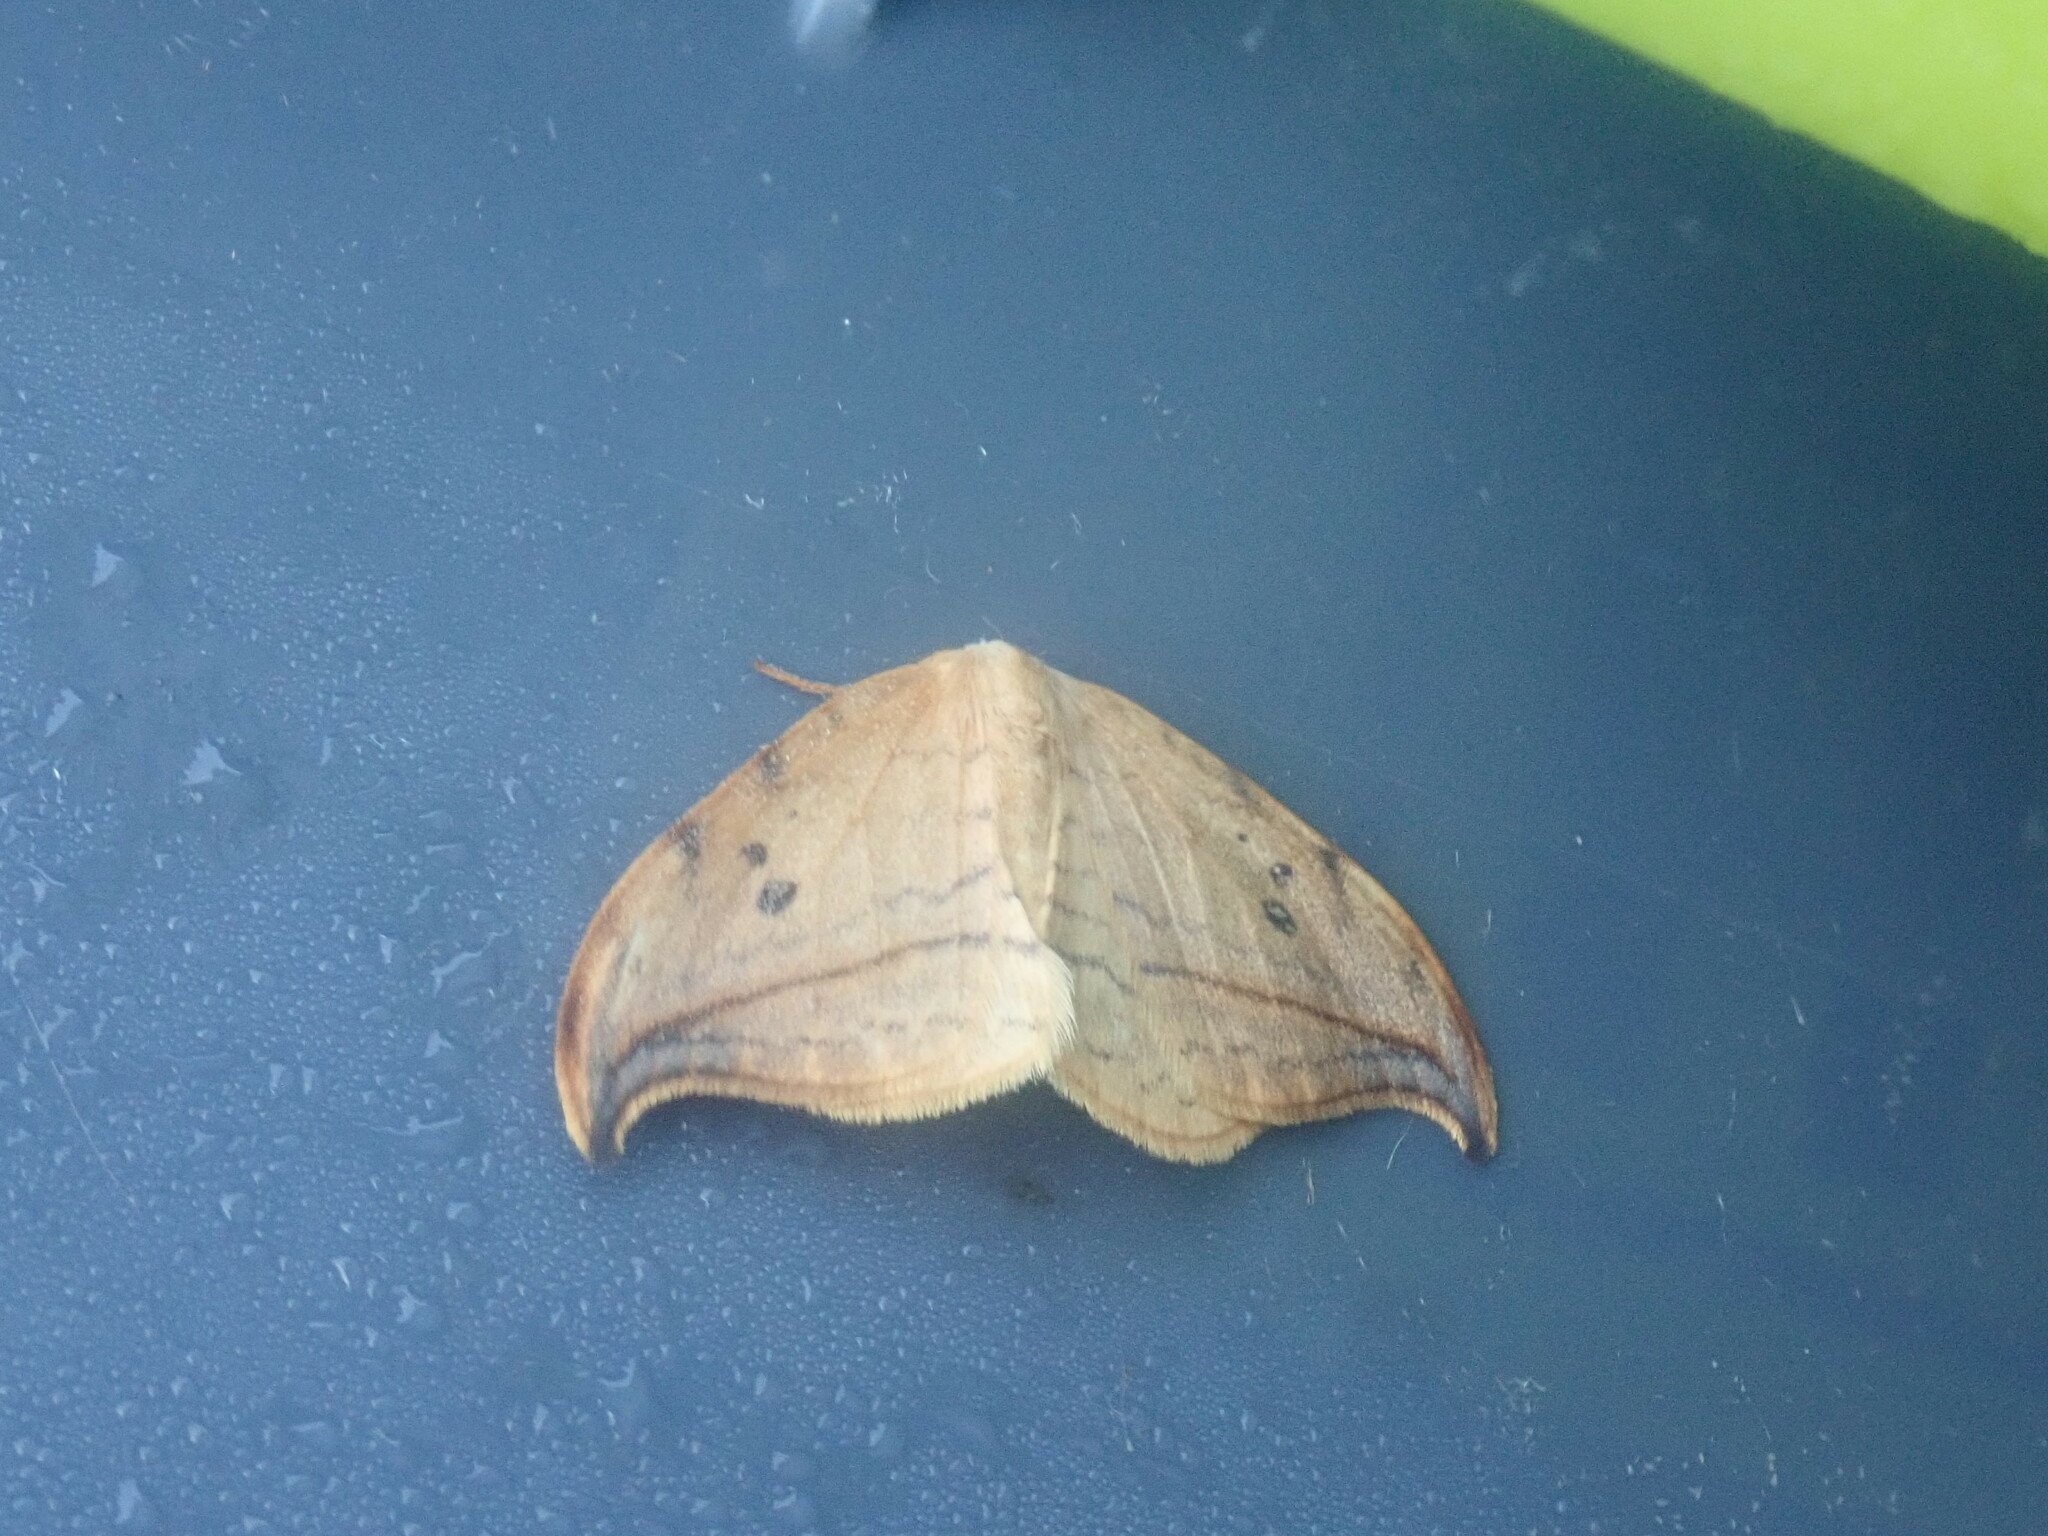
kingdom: Animalia
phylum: Arthropoda
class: Insecta
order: Lepidoptera
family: Drepanidae
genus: Drepana
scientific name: Drepana arcuata
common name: Arched hooktip moth
